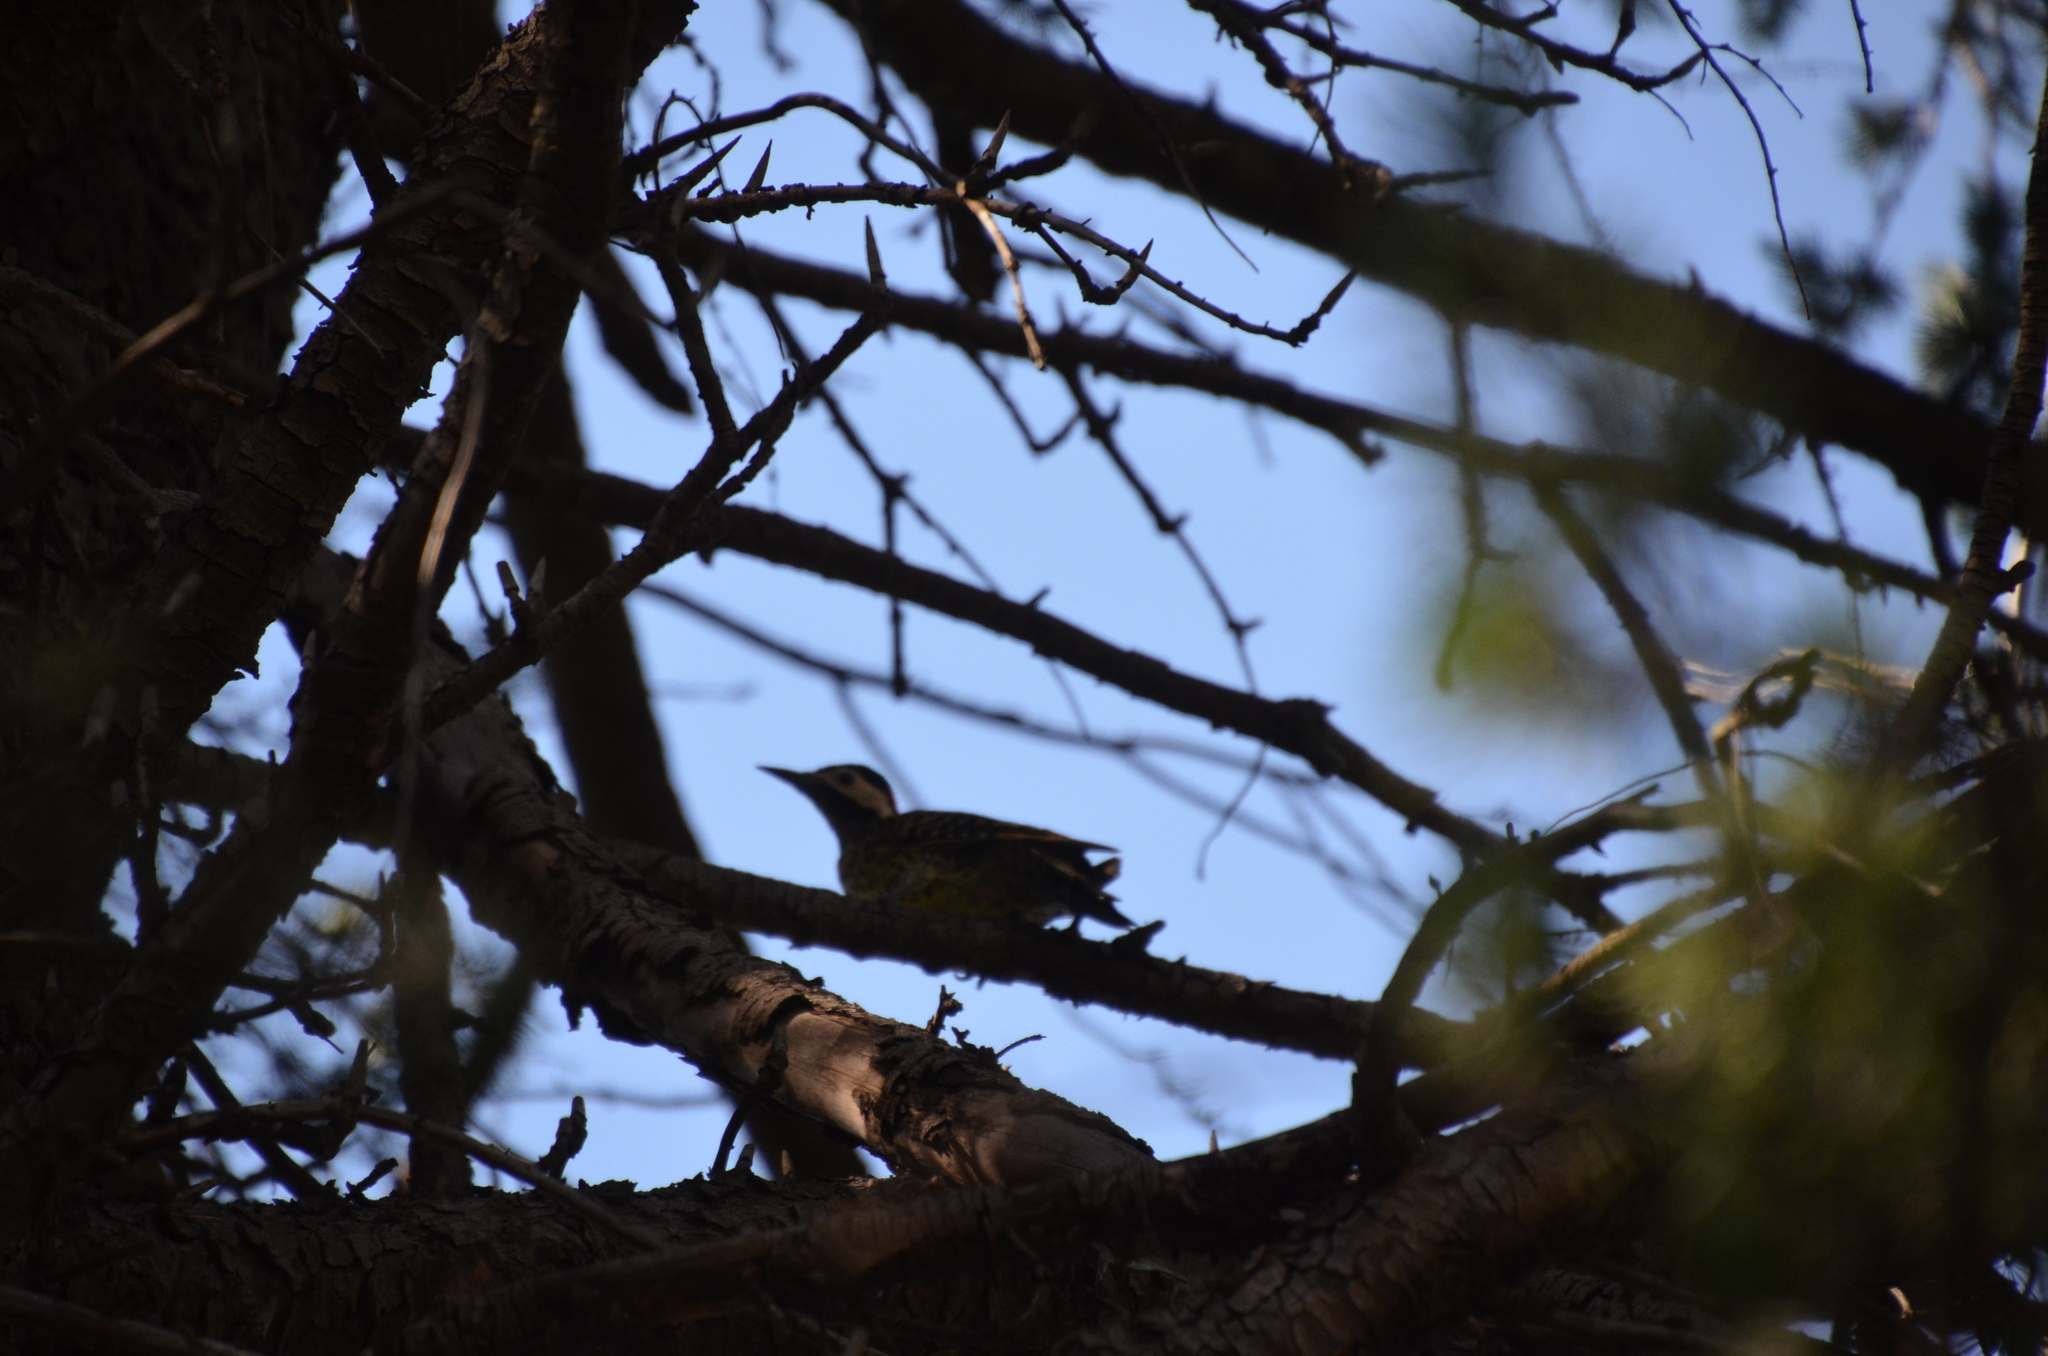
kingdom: Animalia
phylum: Chordata
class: Aves
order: Piciformes
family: Picidae
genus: Colaptes
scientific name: Colaptes melanochloros
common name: Green-barred woodpecker
